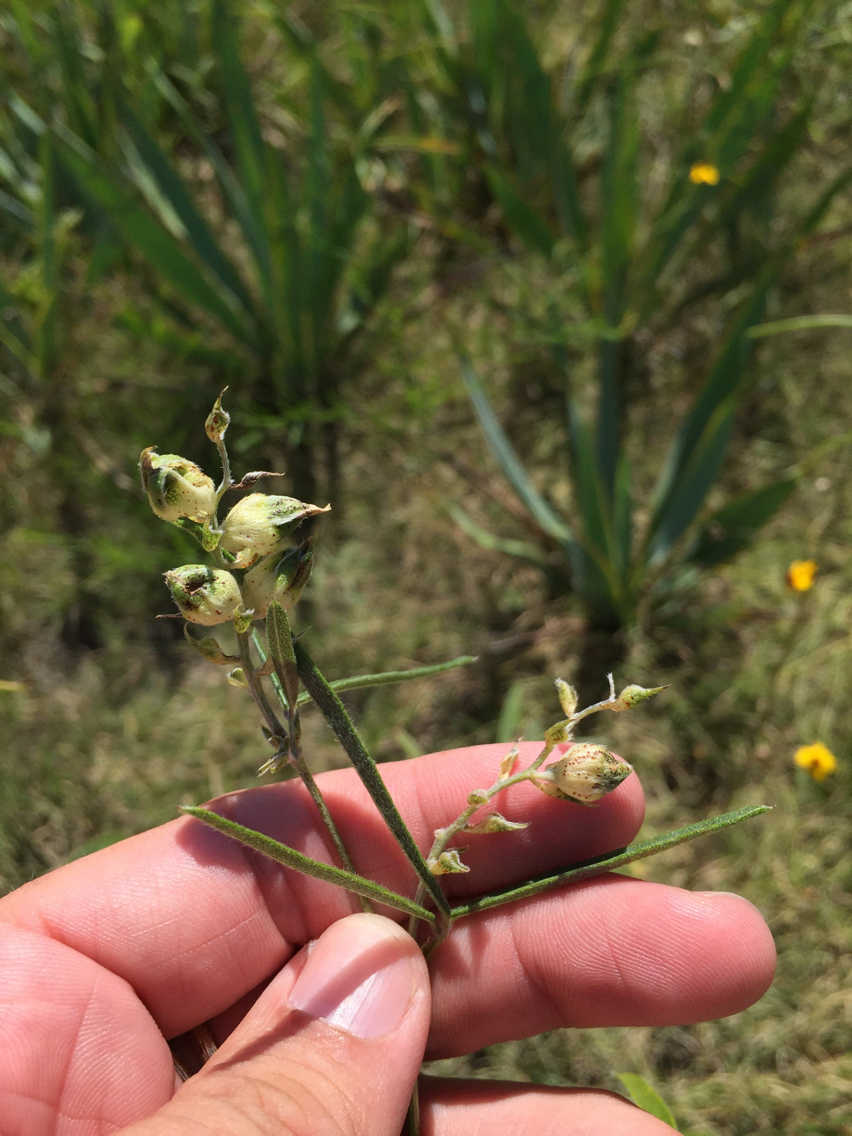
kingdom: Plantae
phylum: Tracheophyta
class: Magnoliopsida
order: Fabales
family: Fabaceae
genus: Pediomelum
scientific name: Pediomelum cyphocalyx
